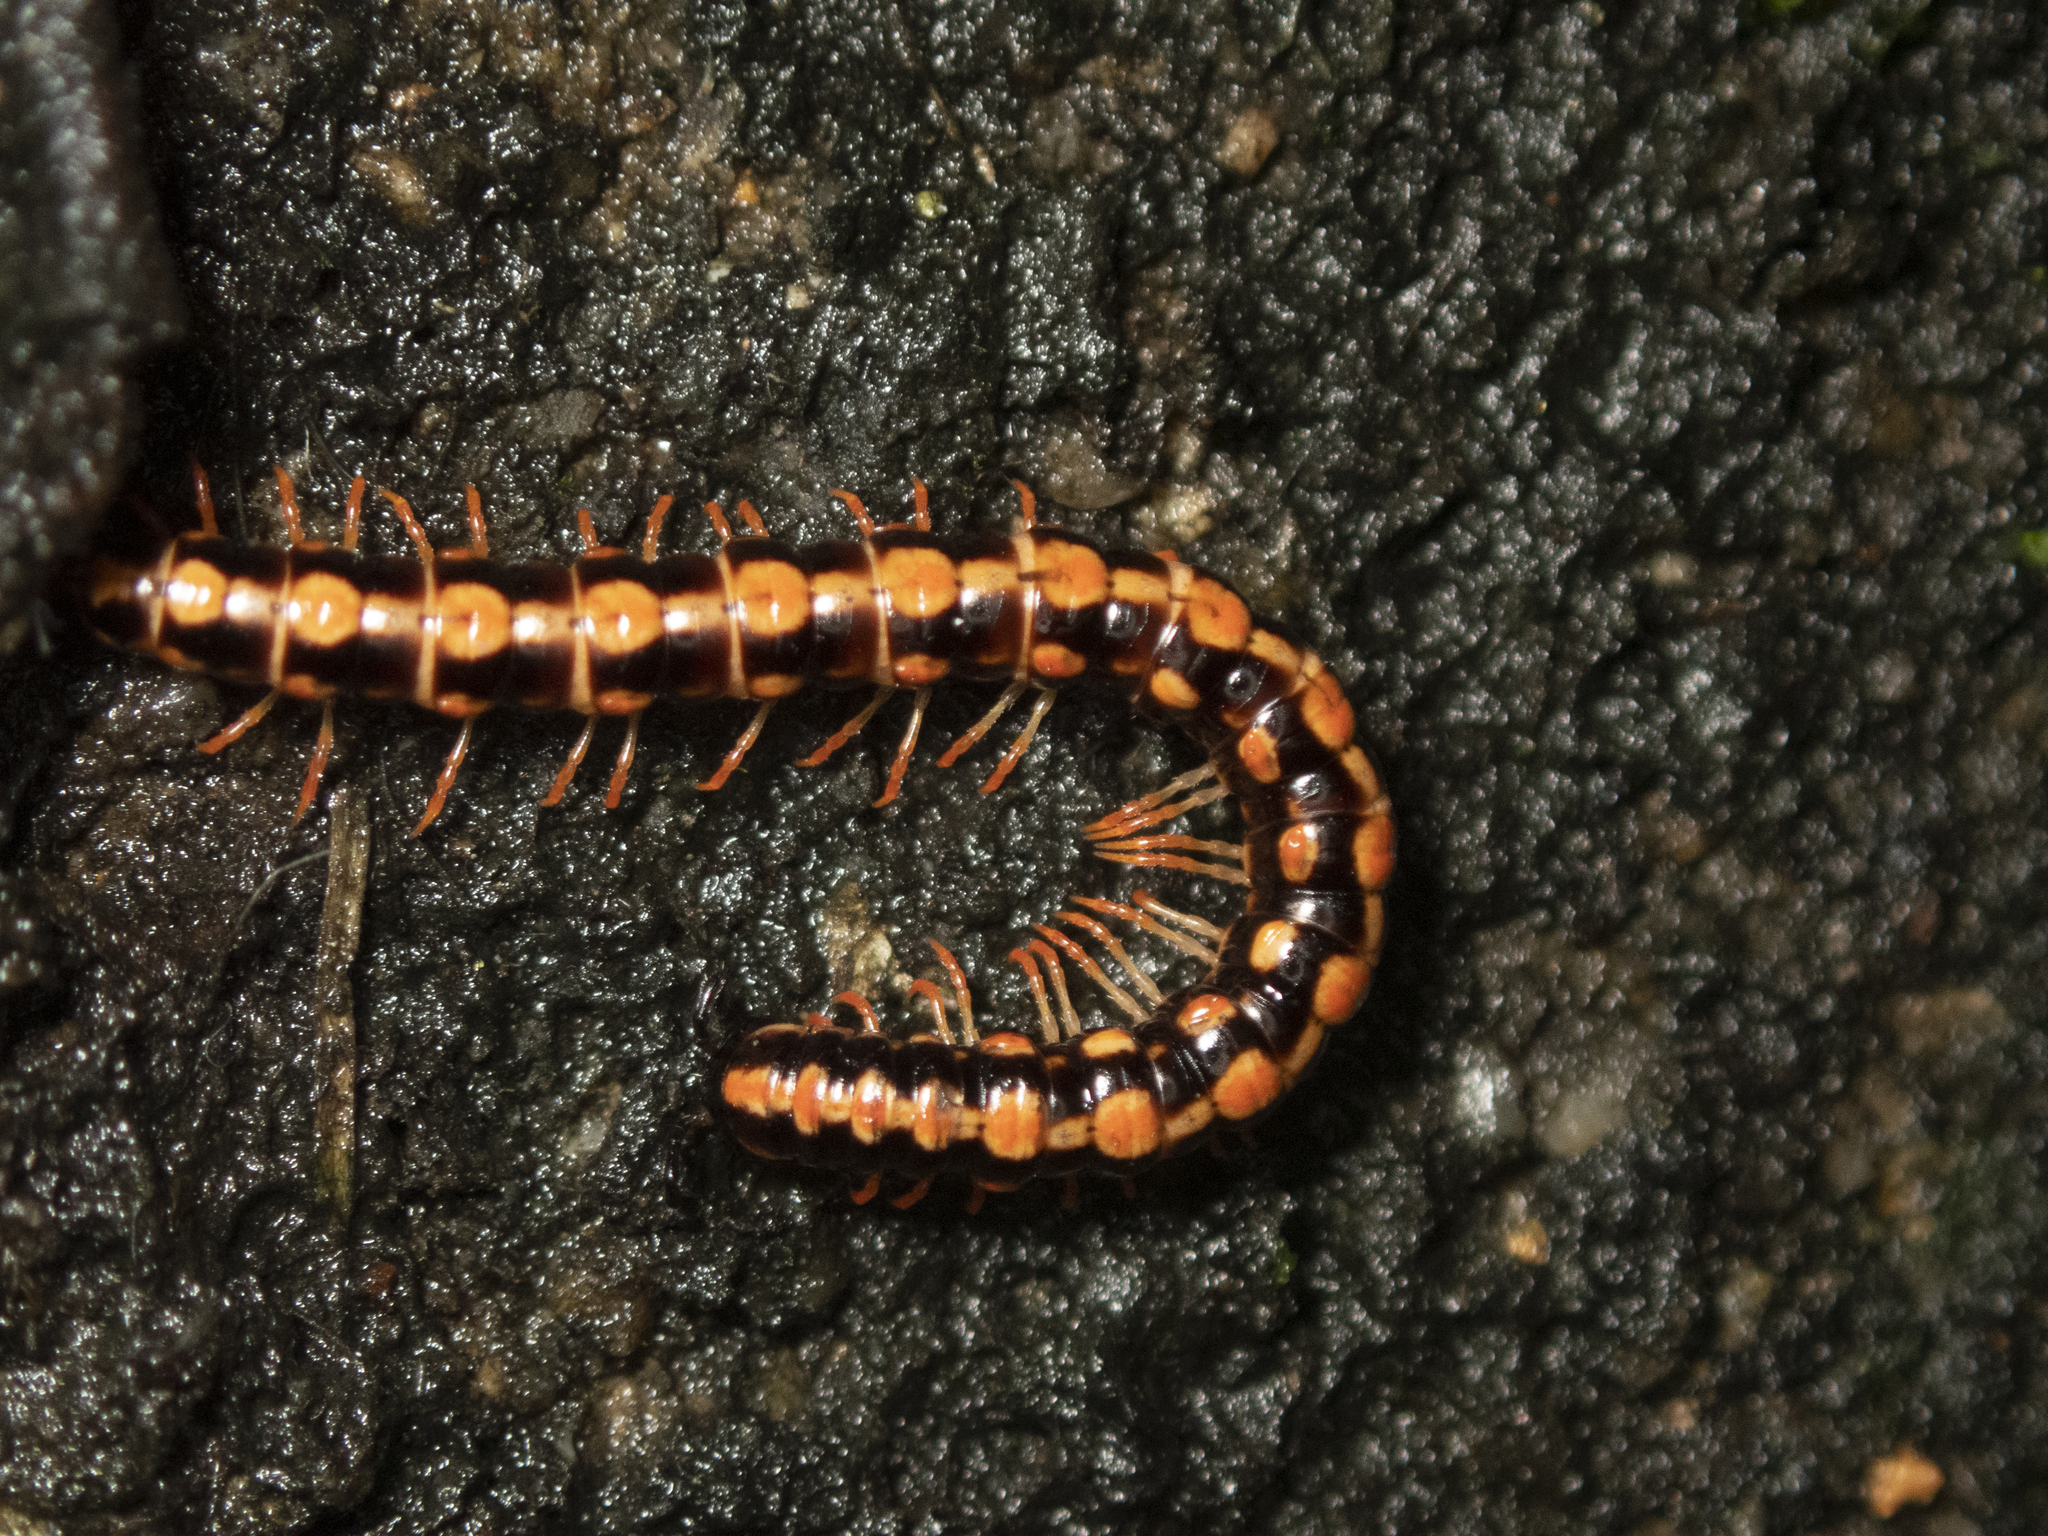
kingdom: Animalia
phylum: Arthropoda
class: Diplopoda
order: Polydesmida
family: Paradoxosomatidae
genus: Helicorthomorpha
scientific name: Helicorthomorpha holstii
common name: Millipede
